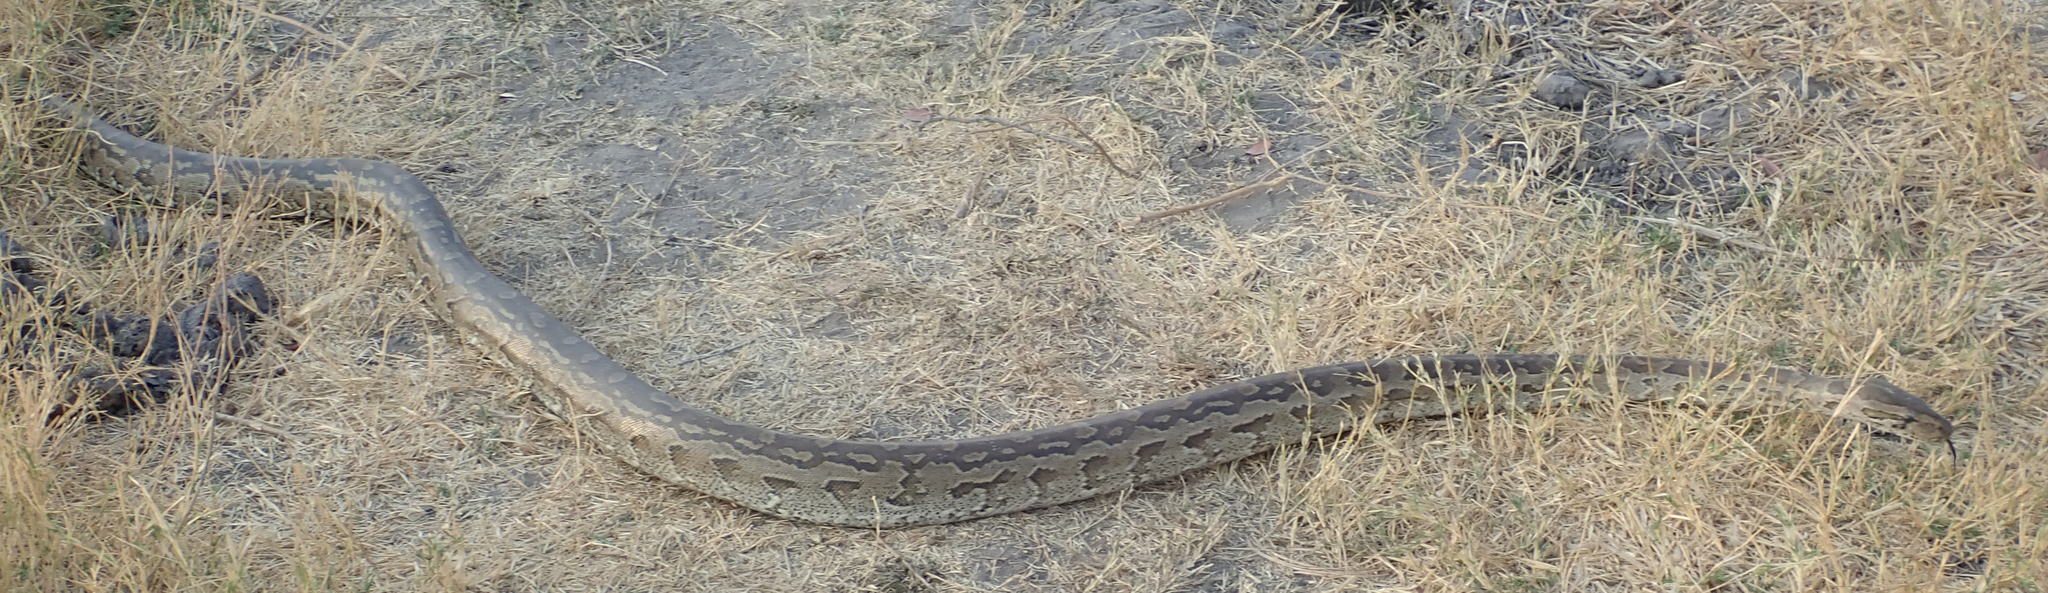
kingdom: Animalia
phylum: Chordata
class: Squamata
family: Pythonidae
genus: Python
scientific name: Python natalensis
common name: Southern african rock python
